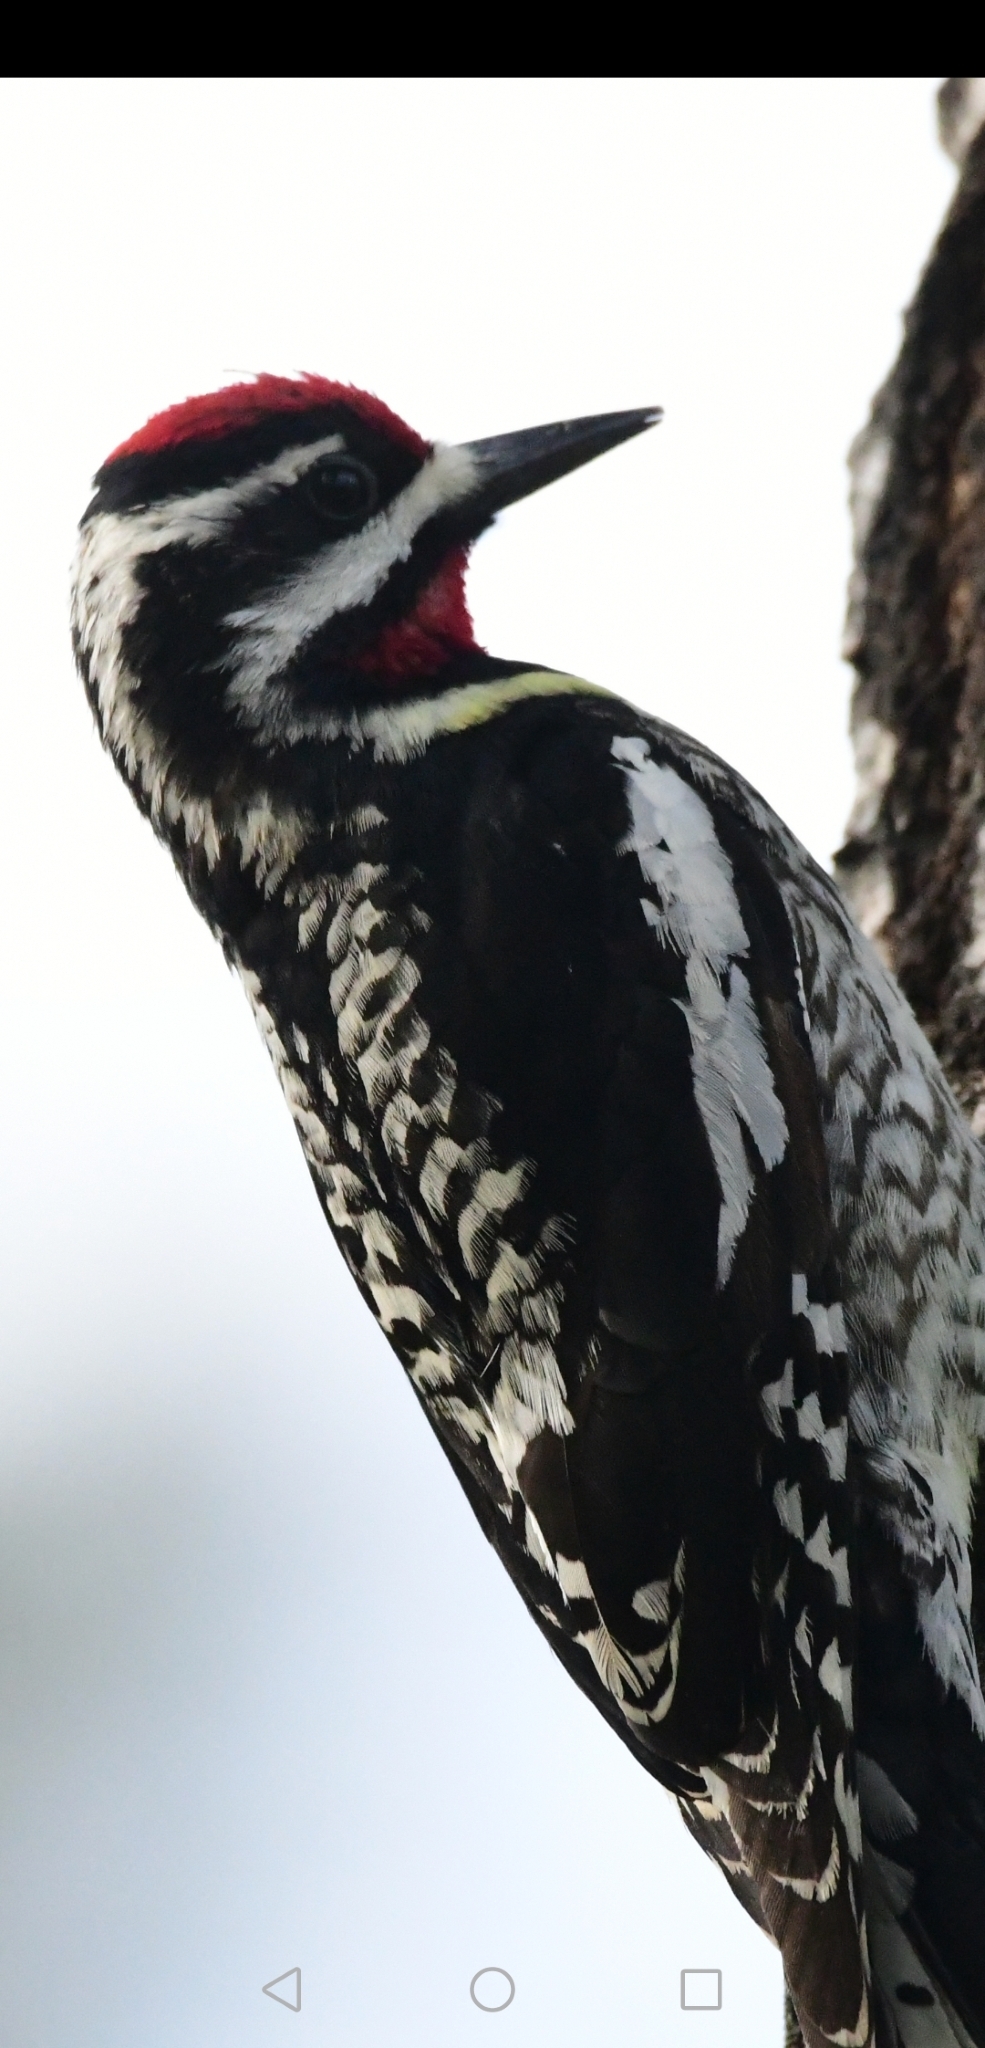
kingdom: Animalia
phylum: Chordata
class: Aves
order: Piciformes
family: Picidae
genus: Sphyrapicus
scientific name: Sphyrapicus varius
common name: Yellow-bellied sapsucker
